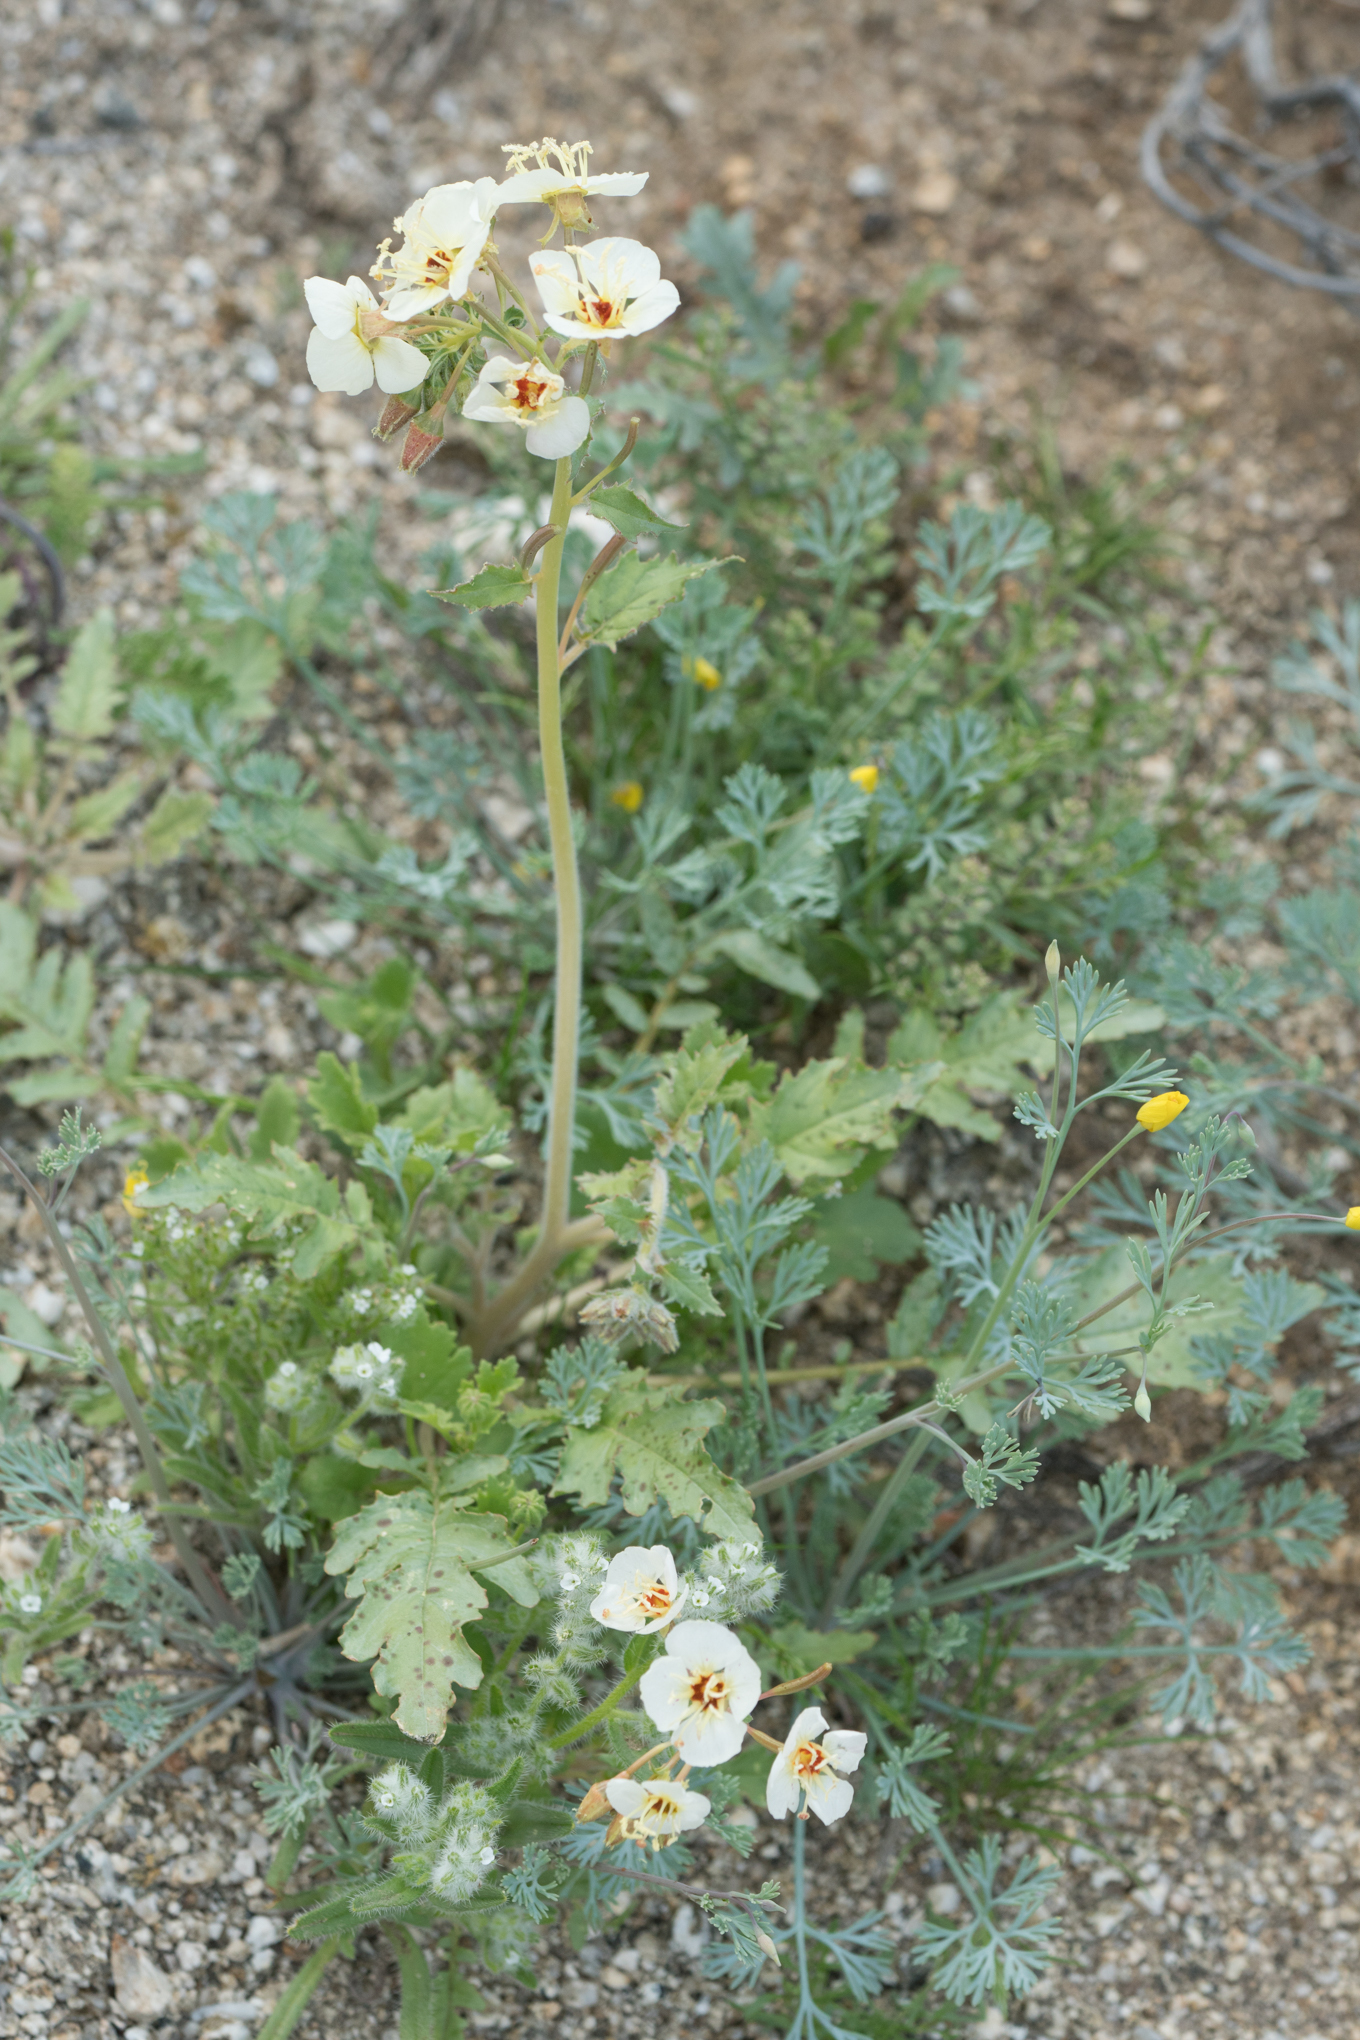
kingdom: Plantae
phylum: Tracheophyta
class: Magnoliopsida
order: Myrtales
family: Onagraceae
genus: Chylismia
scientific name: Chylismia claviformis
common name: Browneyes
